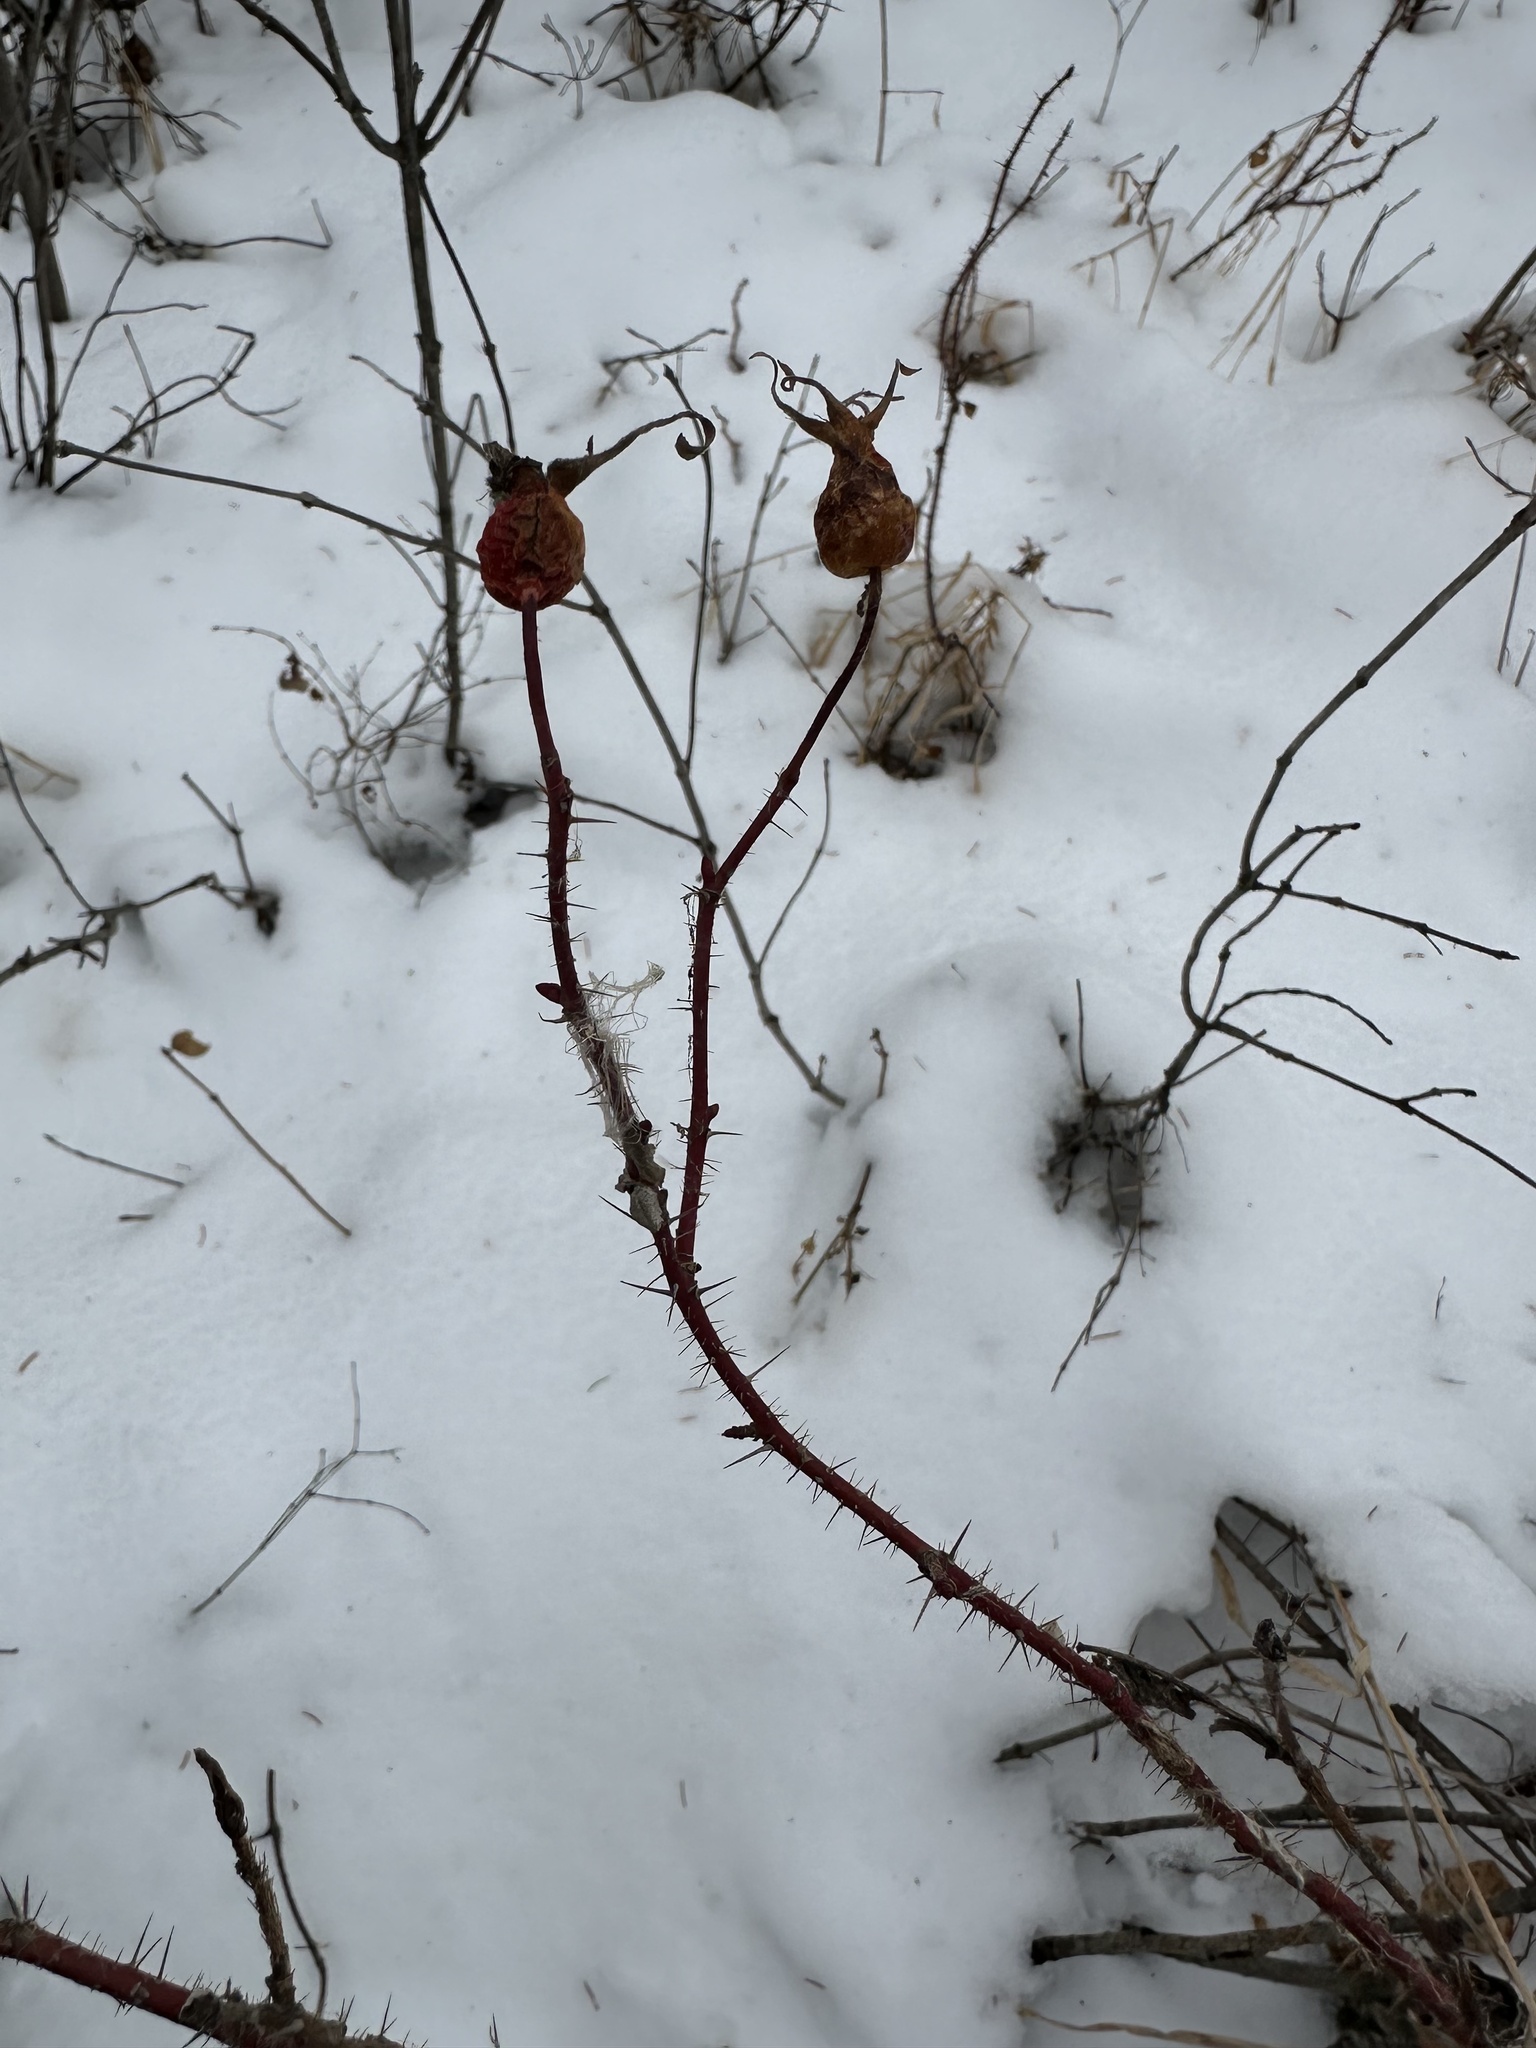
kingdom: Plantae
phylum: Tracheophyta
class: Magnoliopsida
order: Rosales
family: Rosaceae
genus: Rosa
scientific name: Rosa acicularis
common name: Prickly rose
